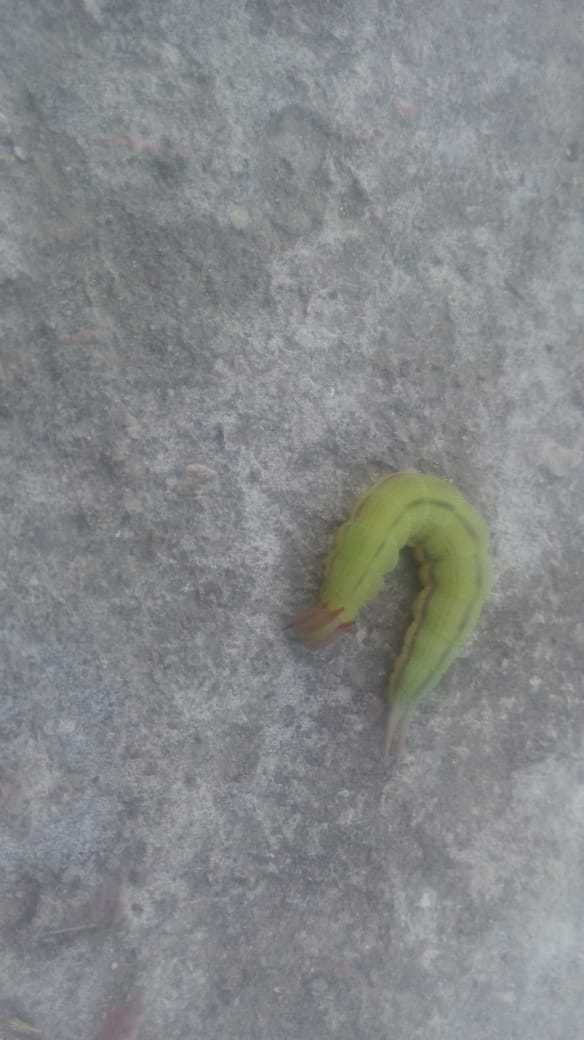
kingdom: Animalia
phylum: Arthropoda
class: Insecta
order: Lepidoptera
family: Nymphalidae
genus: Opsiphanes
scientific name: Opsiphanes invirae
